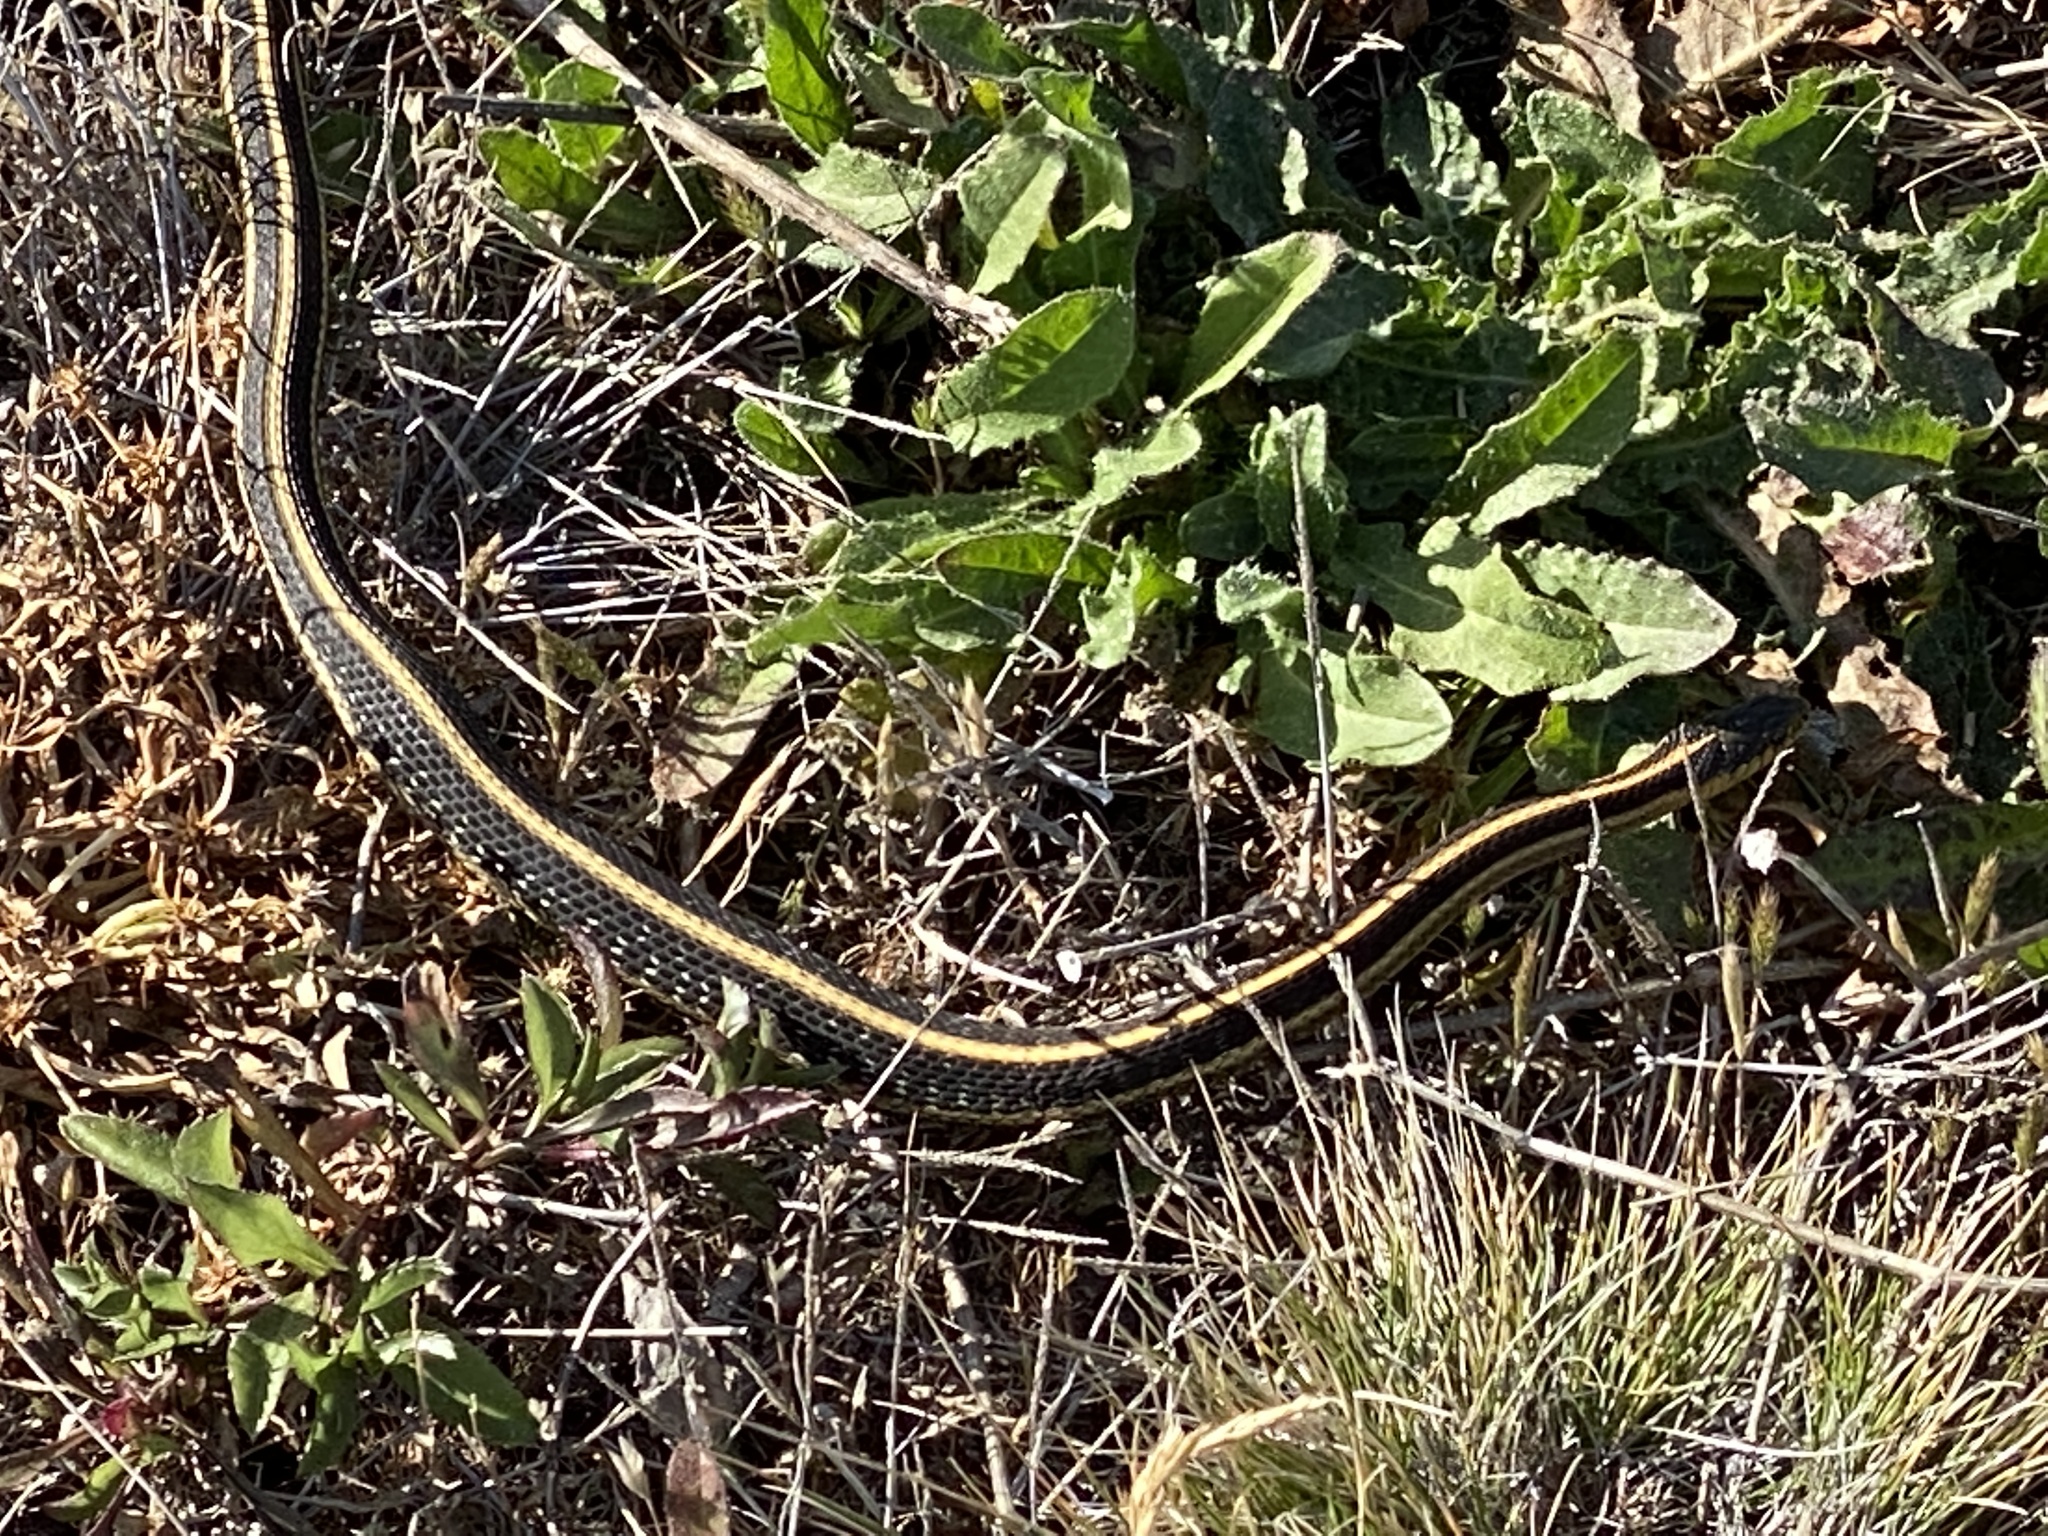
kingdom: Animalia
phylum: Chordata
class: Squamata
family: Colubridae
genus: Thamnophis
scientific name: Thamnophis elegans
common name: Western terrestrial garter snake
